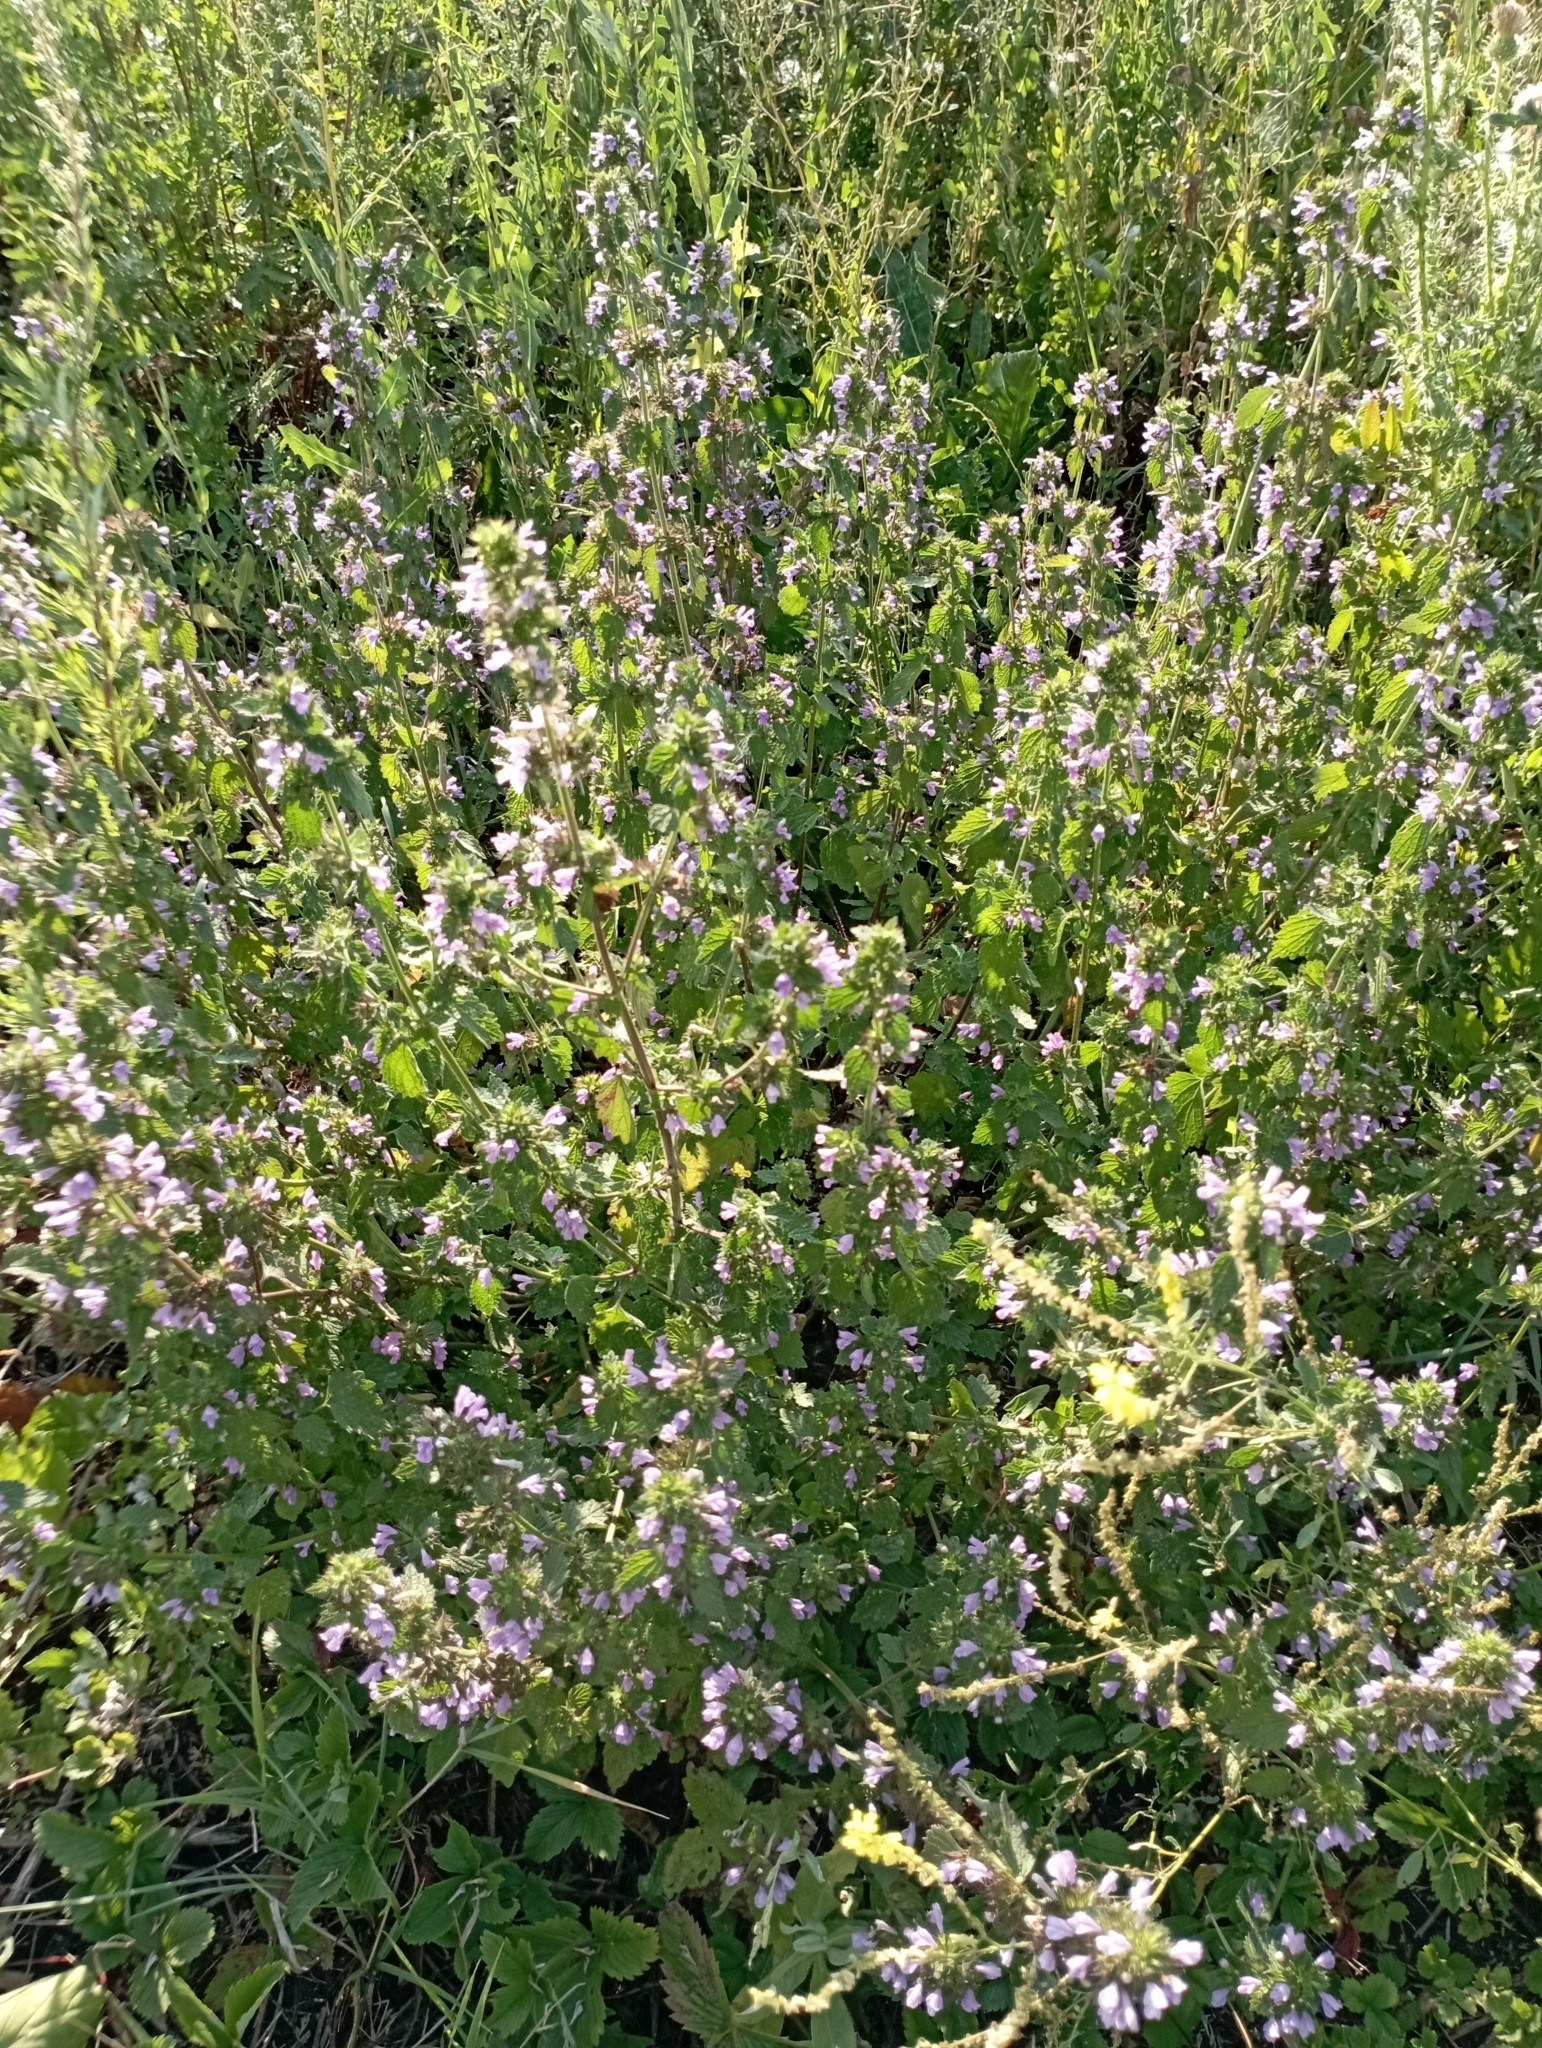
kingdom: Plantae
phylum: Tracheophyta
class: Magnoliopsida
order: Lamiales
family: Lamiaceae
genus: Ballota
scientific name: Ballota nigra
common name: Black horehound
